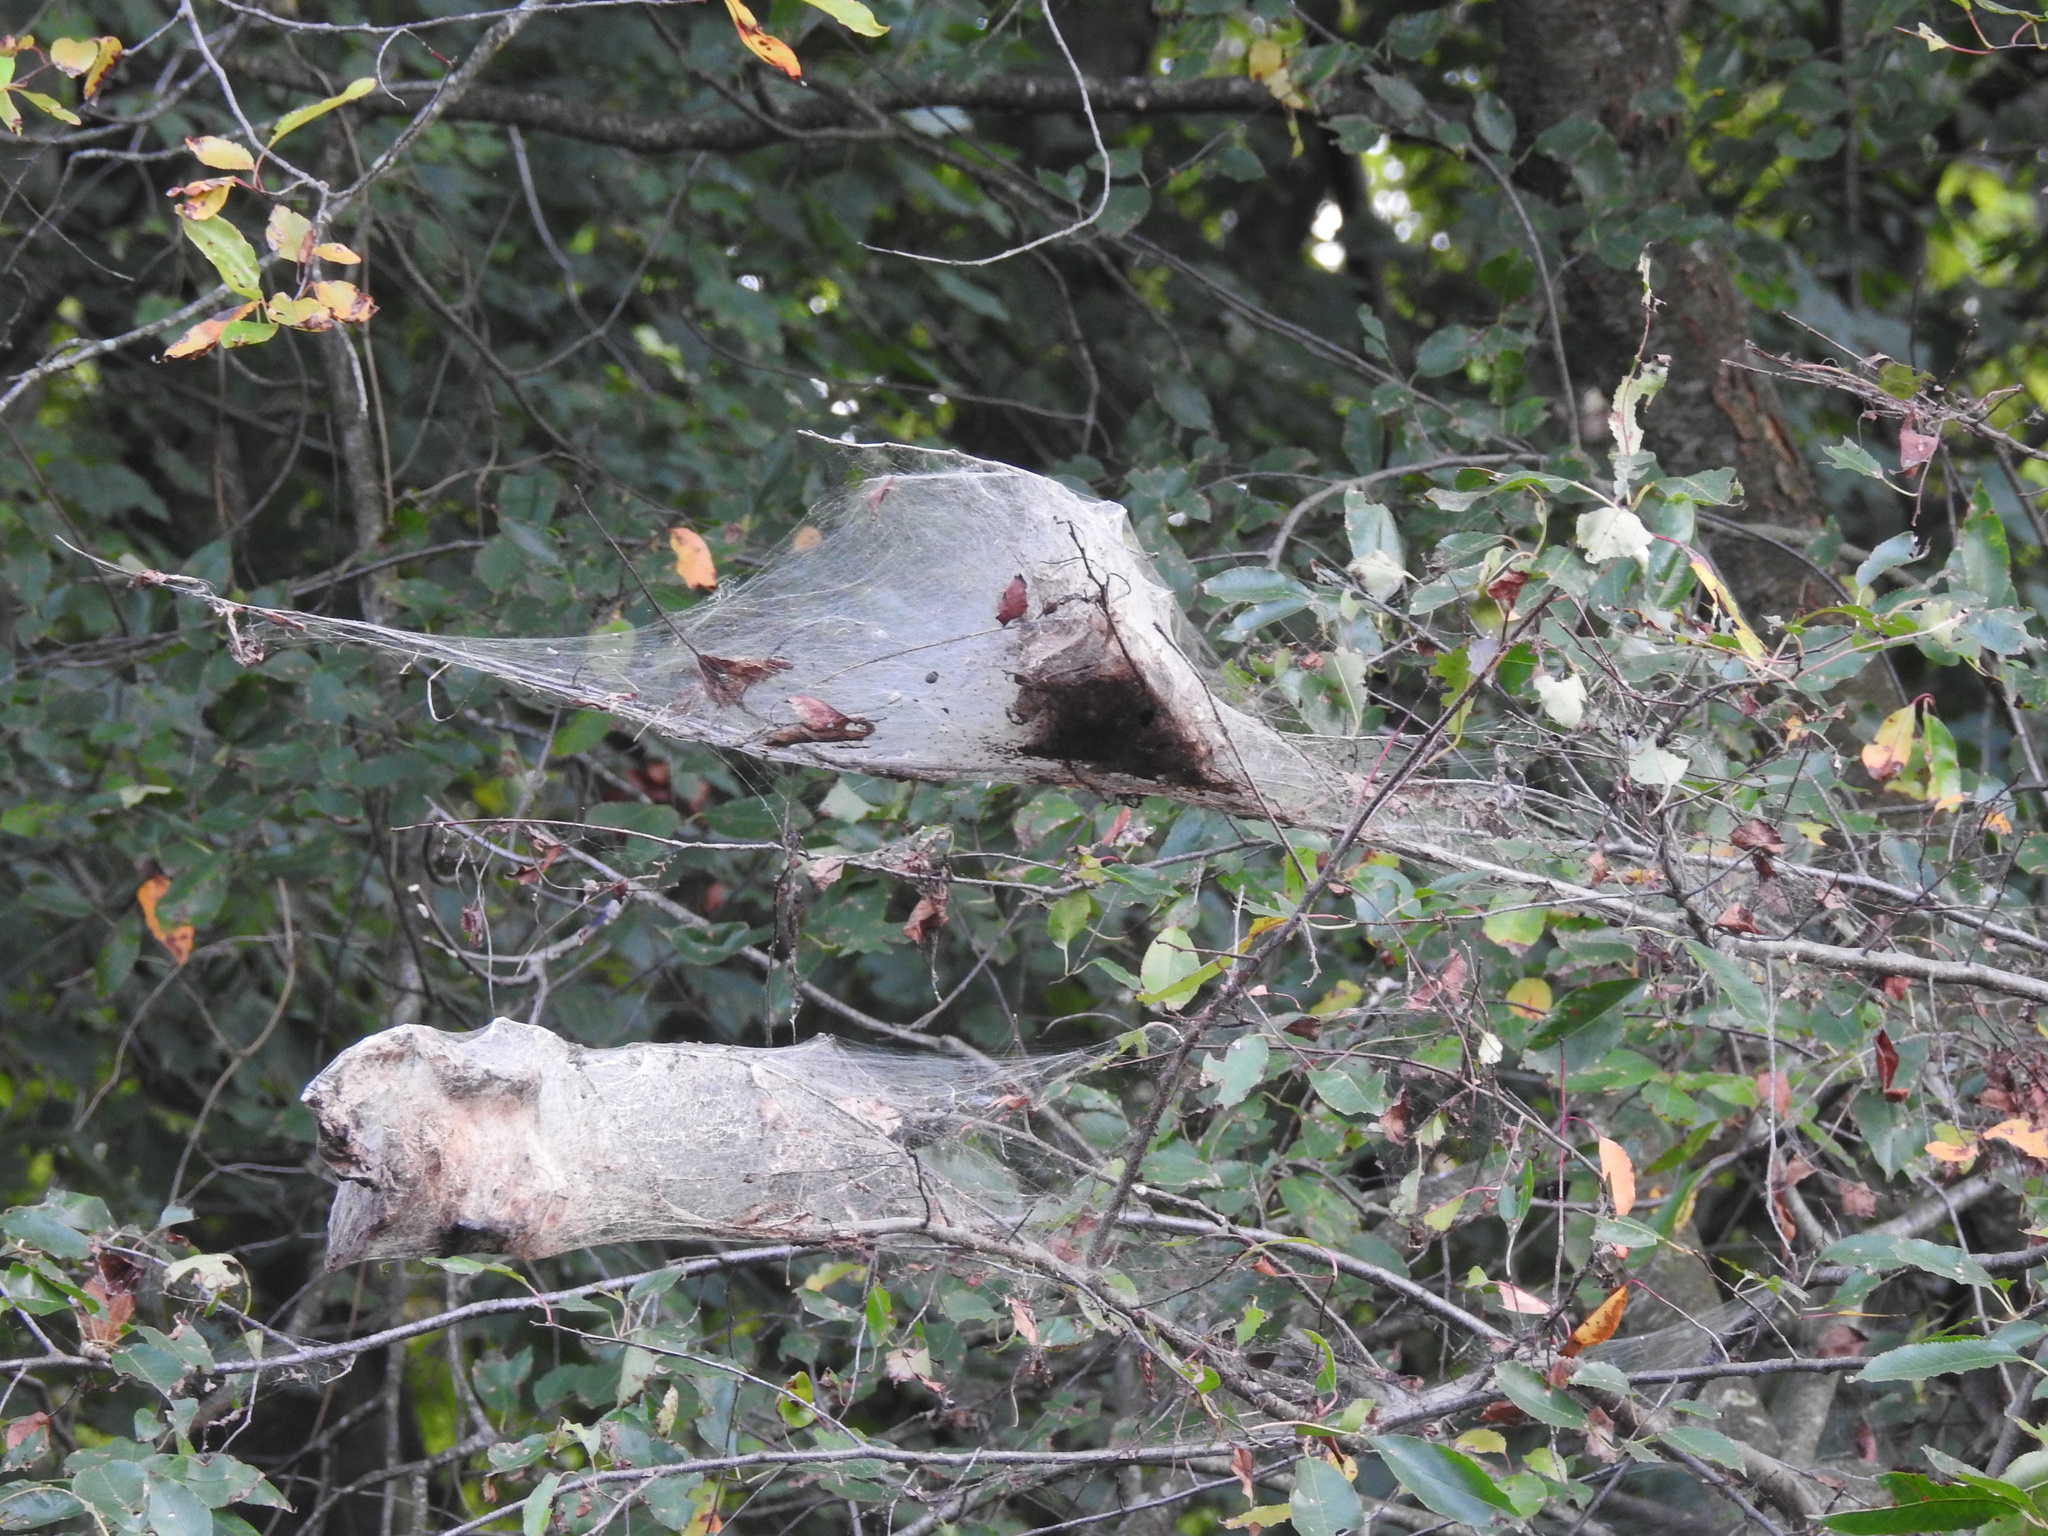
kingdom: Animalia
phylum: Arthropoda
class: Insecta
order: Lepidoptera
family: Erebidae
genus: Hyphantria
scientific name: Hyphantria cunea
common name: American white moth
